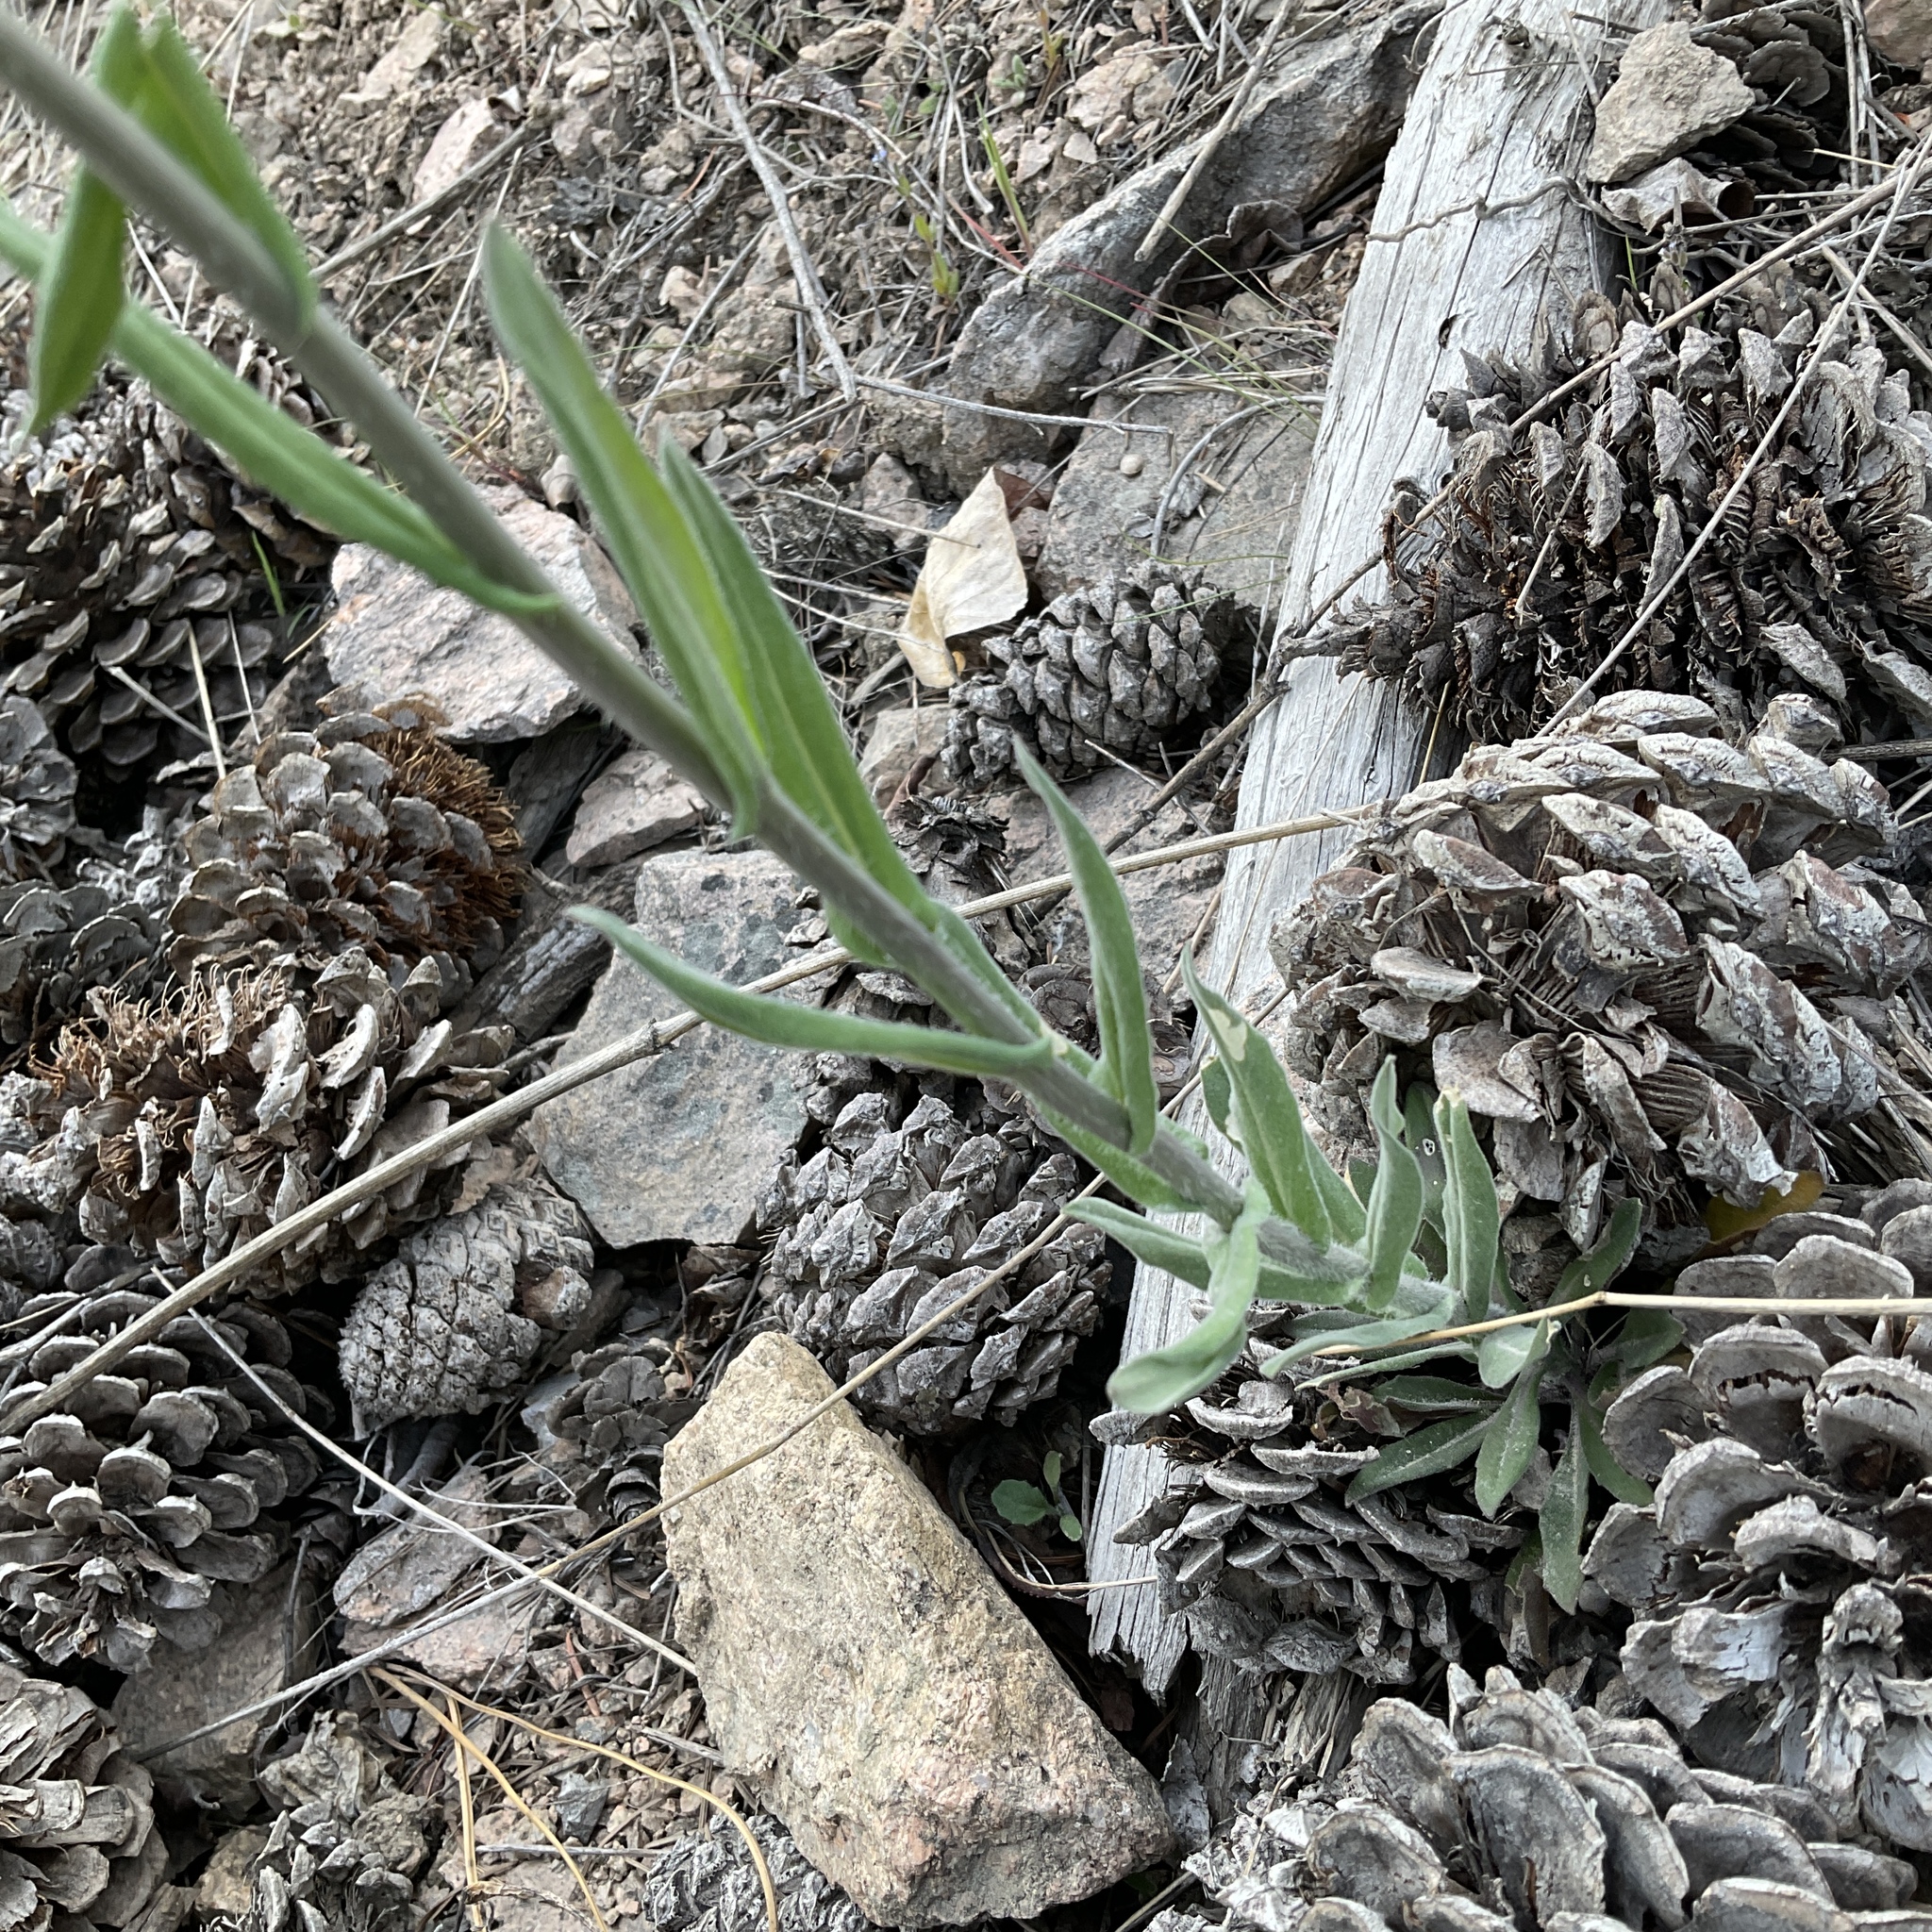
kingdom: Plantae
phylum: Tracheophyta
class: Magnoliopsida
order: Brassicales
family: Brassicaceae
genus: Boechera
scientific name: Boechera retrofracta
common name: Dangling suncress
